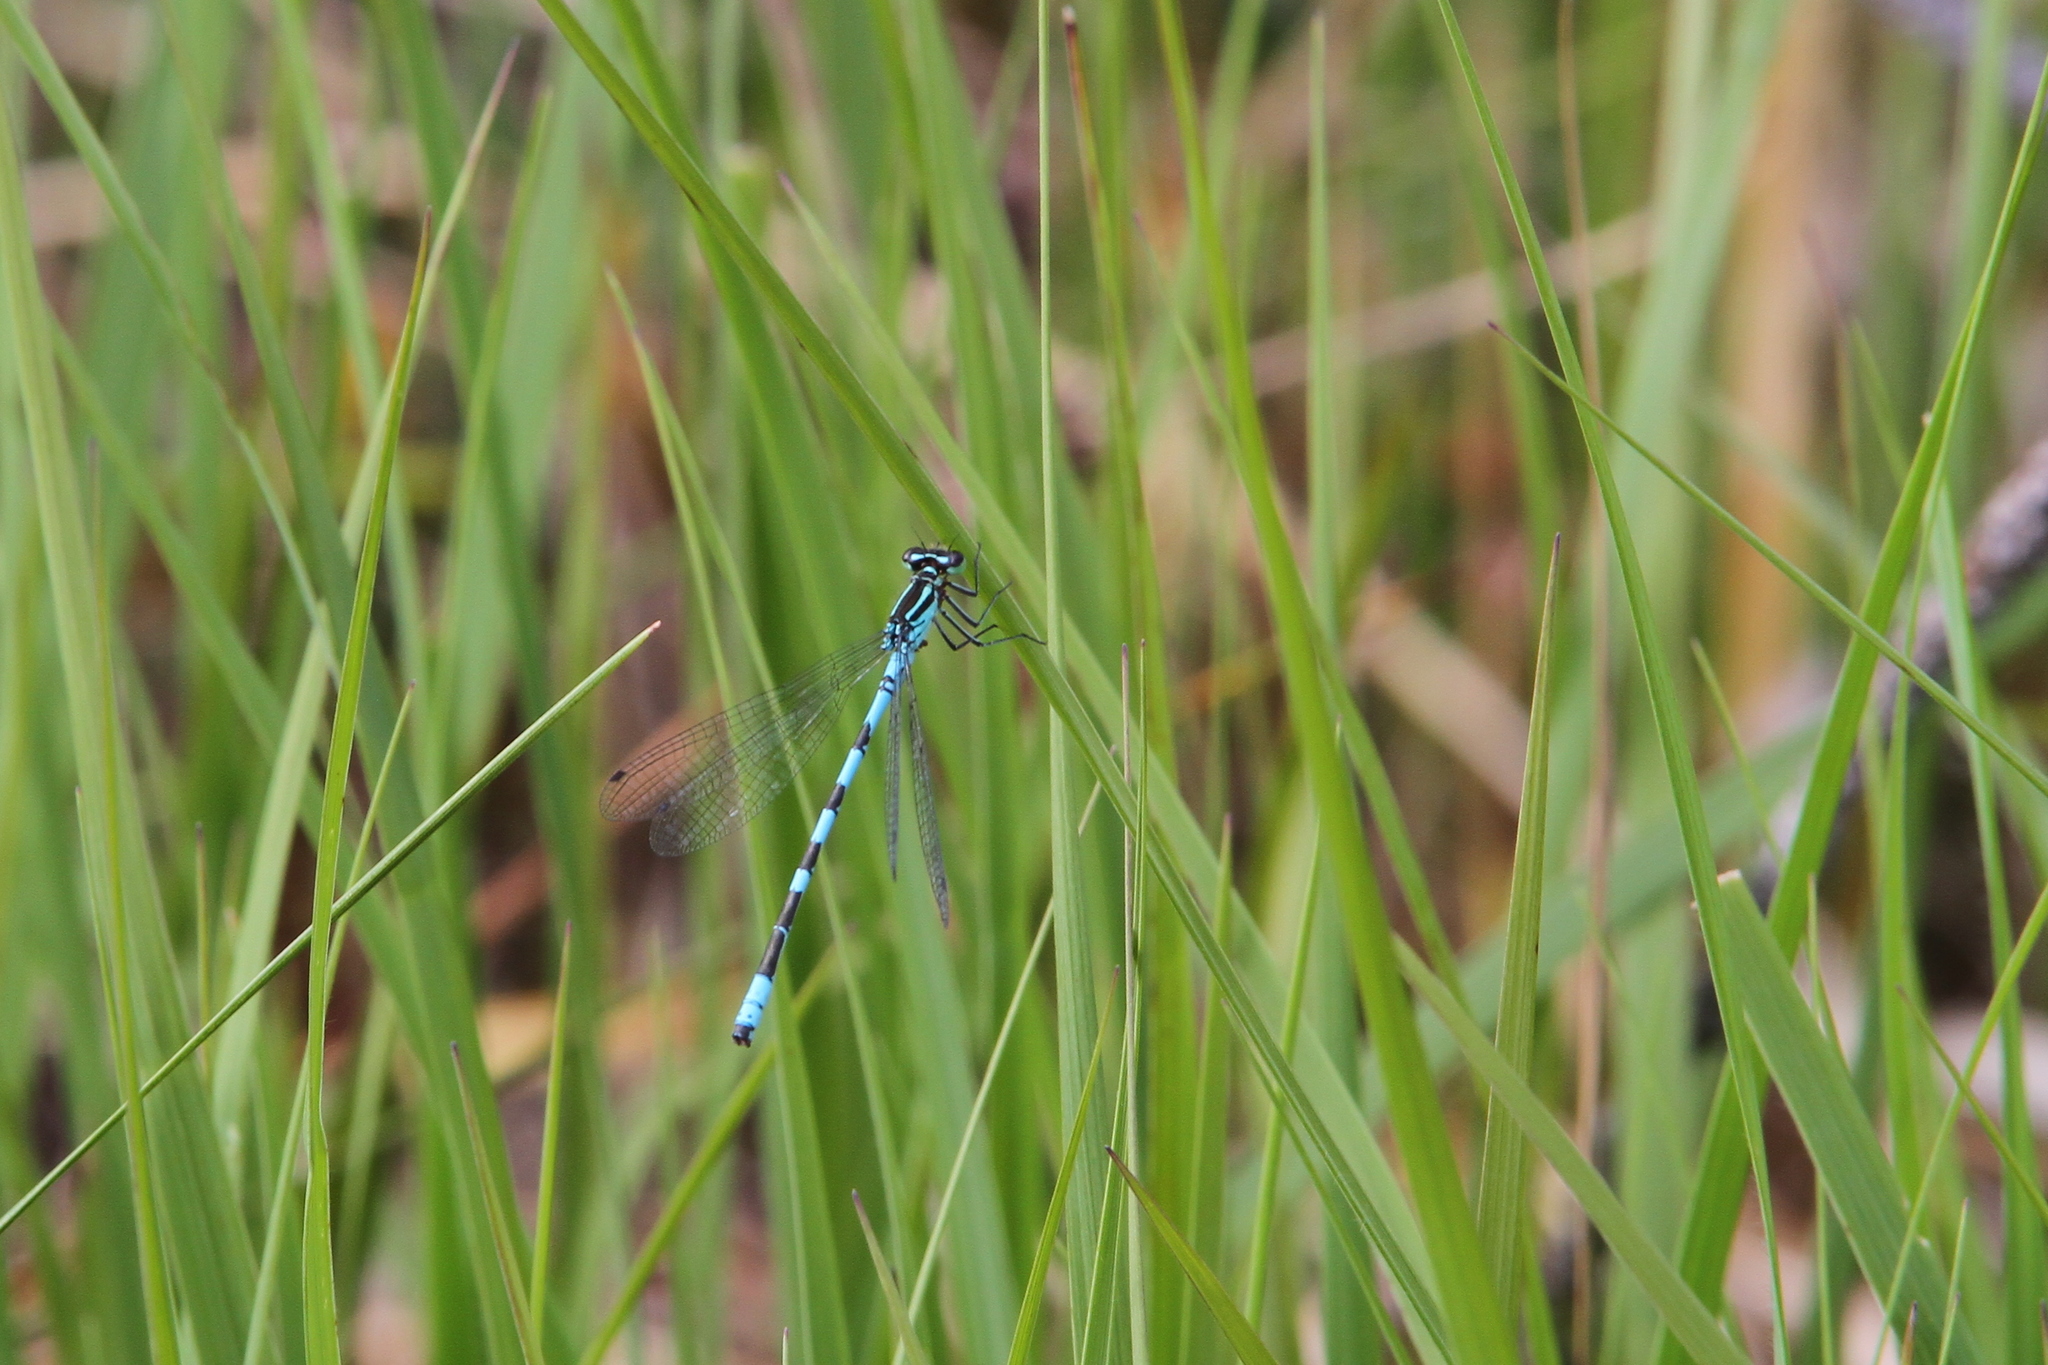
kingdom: Animalia
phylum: Arthropoda
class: Insecta
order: Odonata
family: Coenagrionidae
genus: Coenagrion
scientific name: Coenagrion hastulatum
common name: Spearhead bluet
